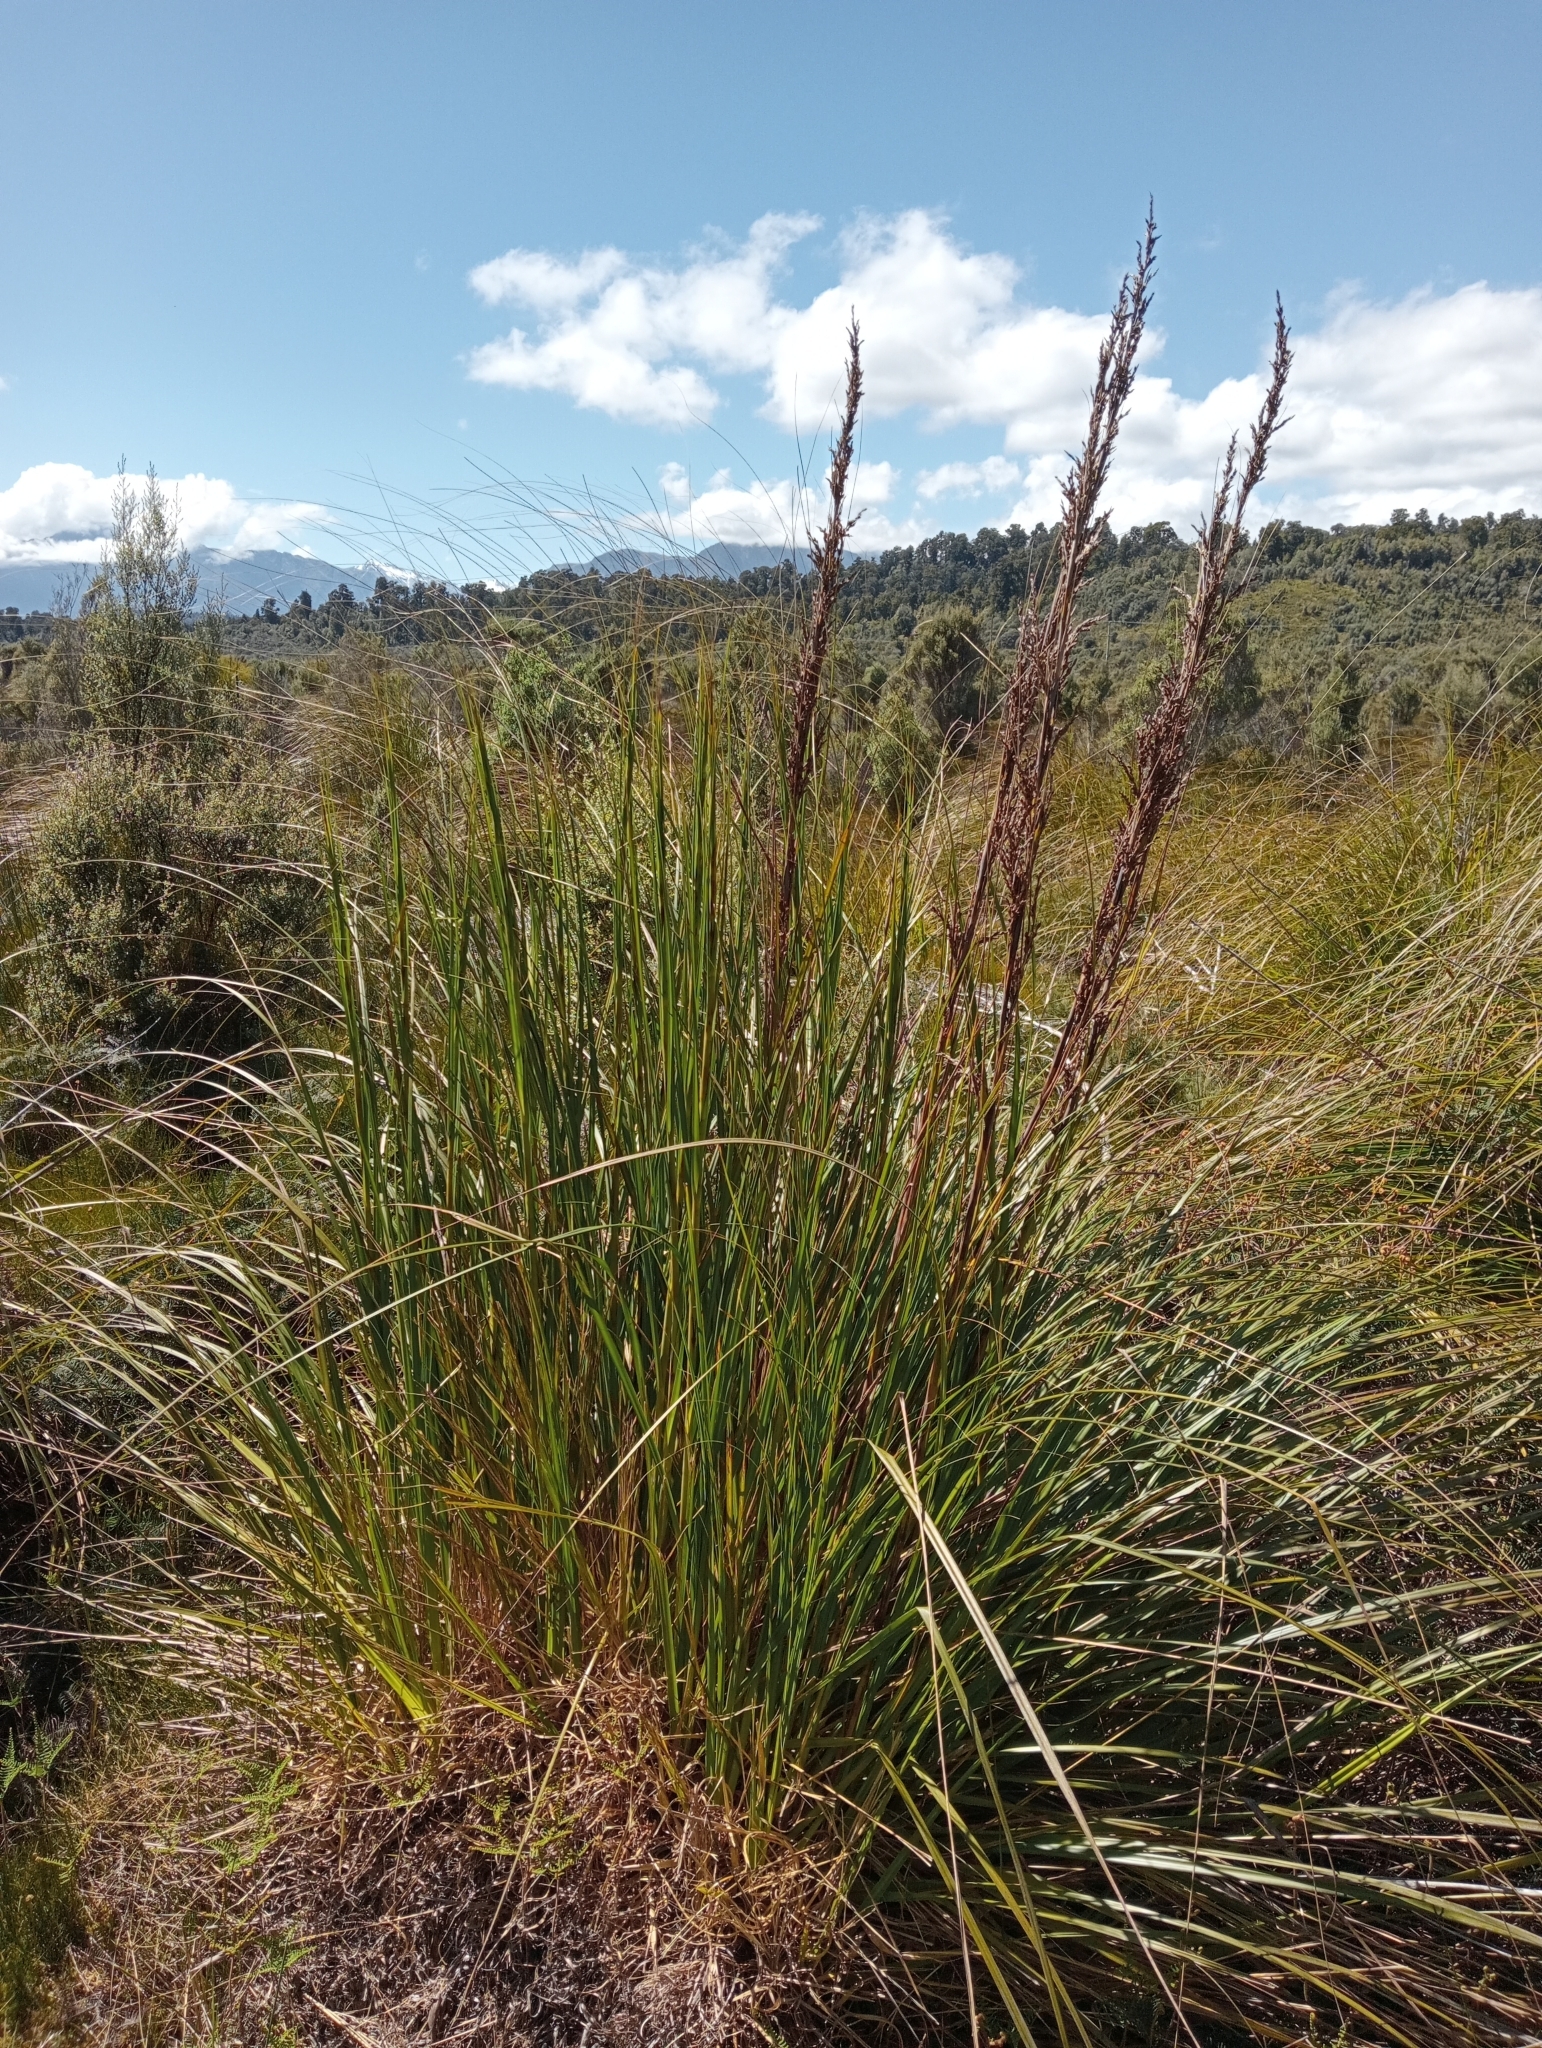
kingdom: Plantae
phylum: Tracheophyta
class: Liliopsida
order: Poales
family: Cyperaceae
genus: Gahnia
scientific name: Gahnia rigida
